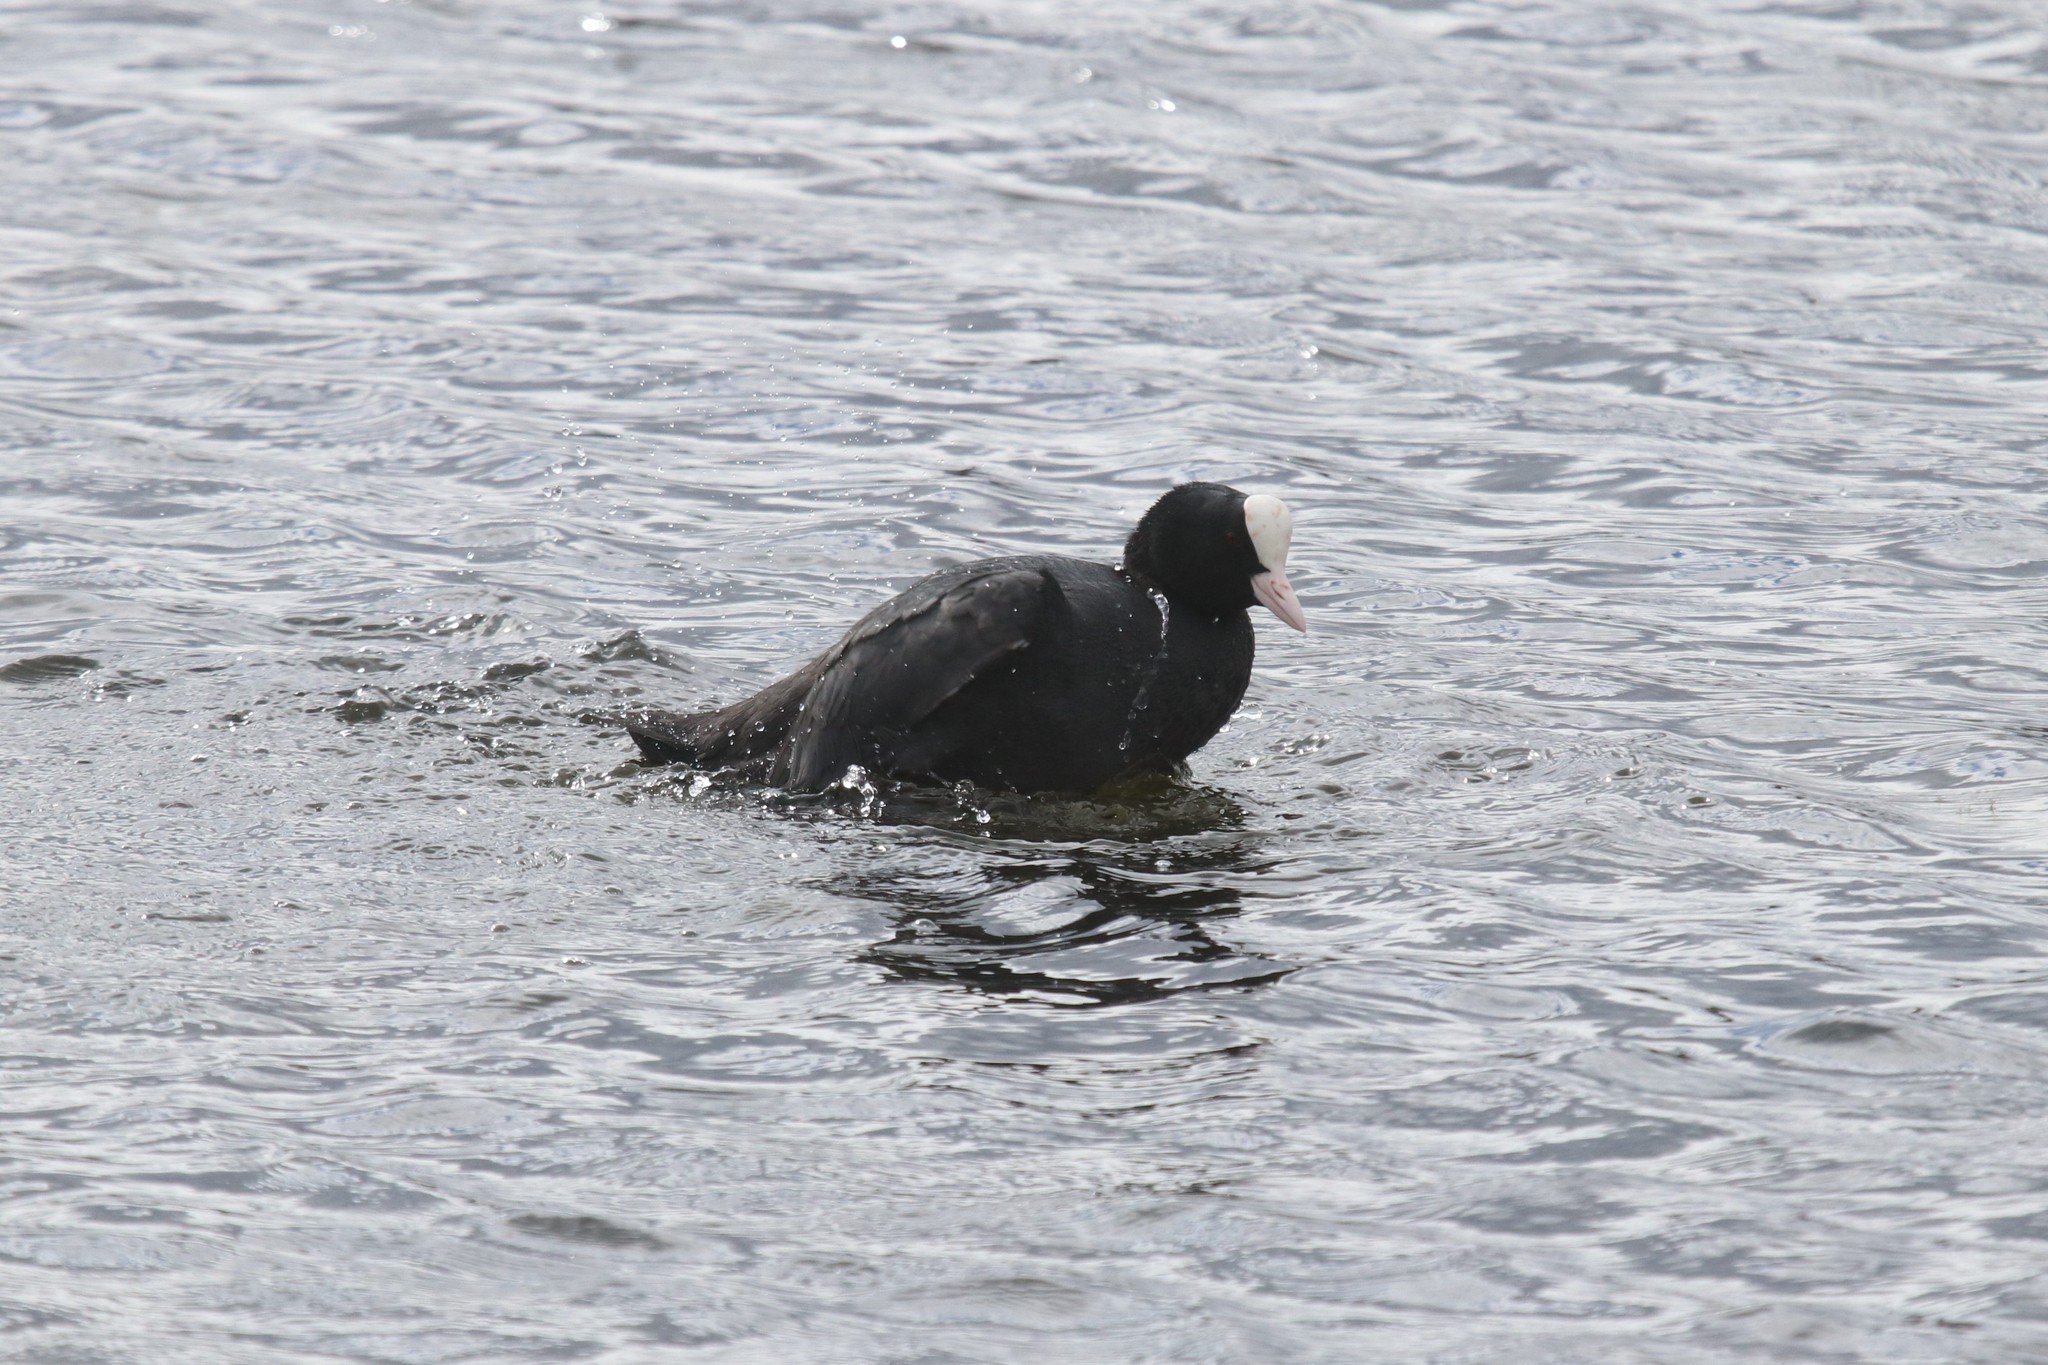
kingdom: Animalia
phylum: Chordata
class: Aves
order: Gruiformes
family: Rallidae
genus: Fulica
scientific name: Fulica atra
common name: Eurasian coot
